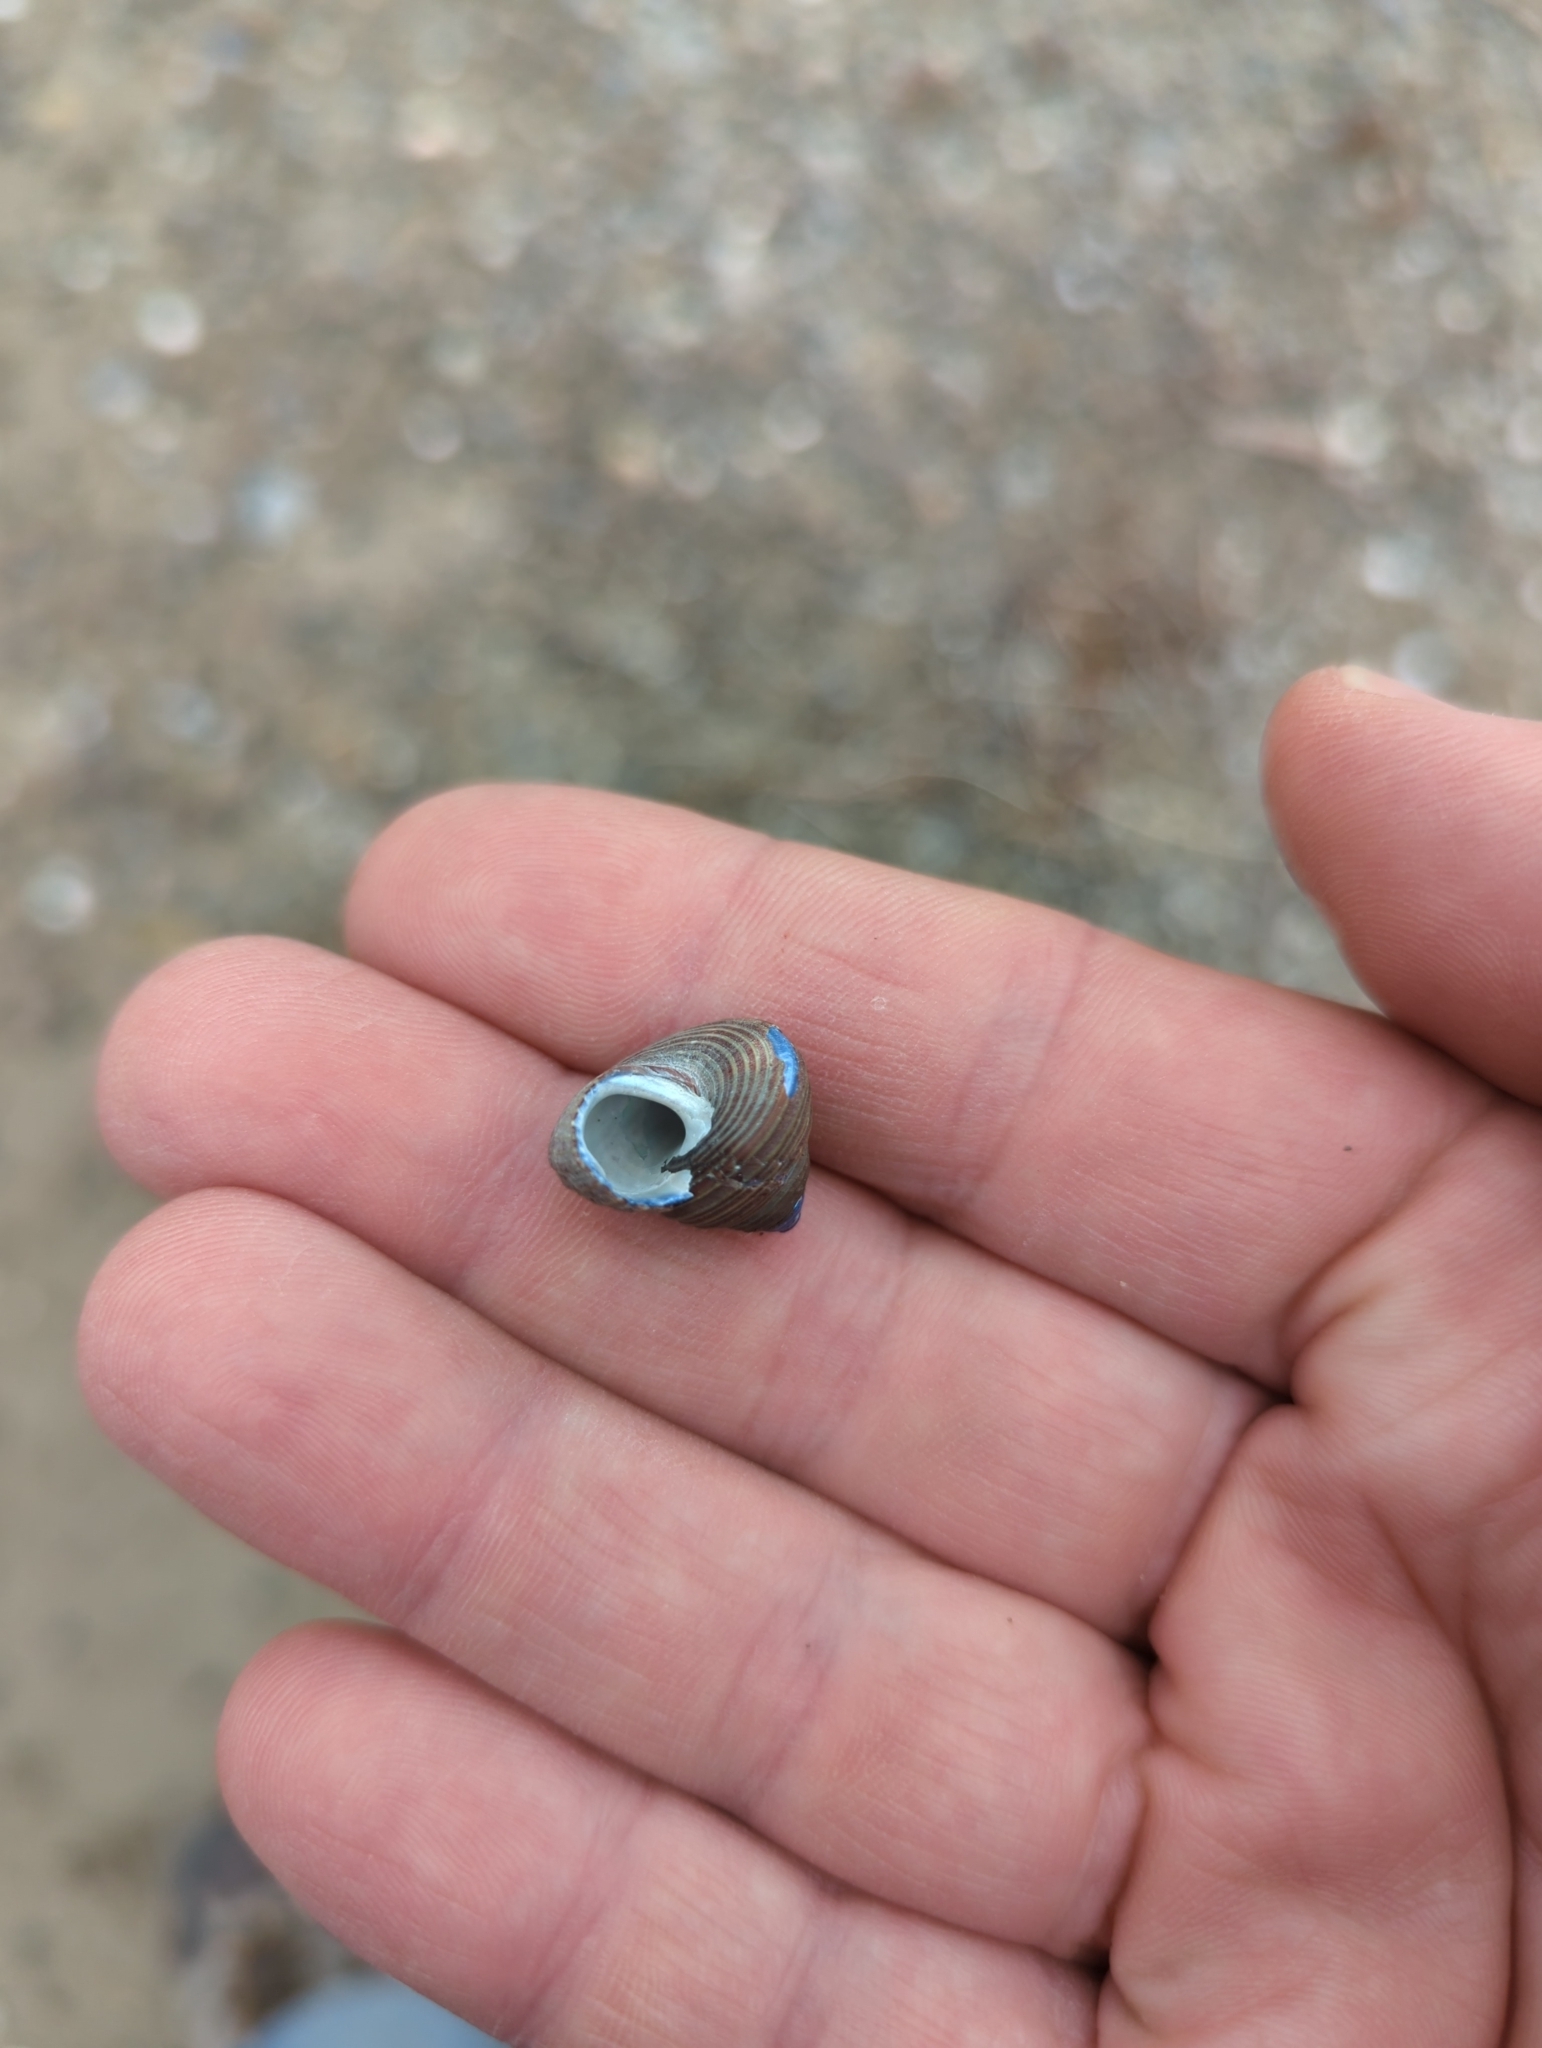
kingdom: Animalia
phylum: Mollusca
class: Gastropoda
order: Trochida
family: Calliostomatidae
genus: Calliostoma
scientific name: Calliostoma ligatum
